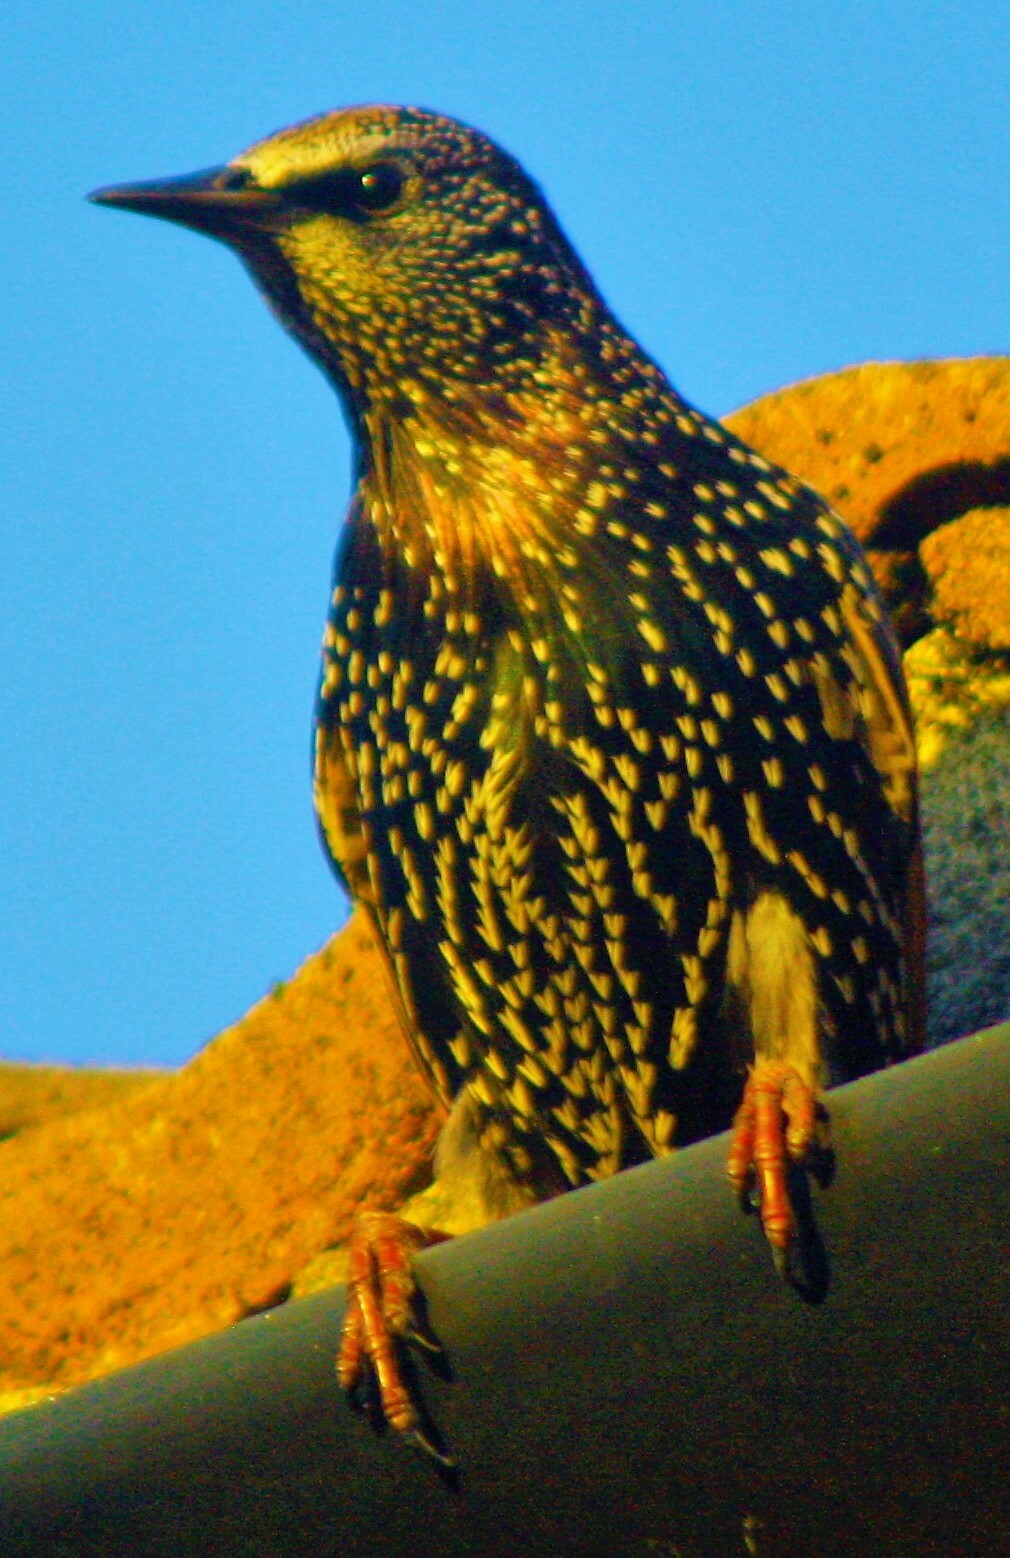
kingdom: Animalia
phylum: Chordata
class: Aves
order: Passeriformes
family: Sturnidae
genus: Sturnus
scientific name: Sturnus vulgaris
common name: Common starling
